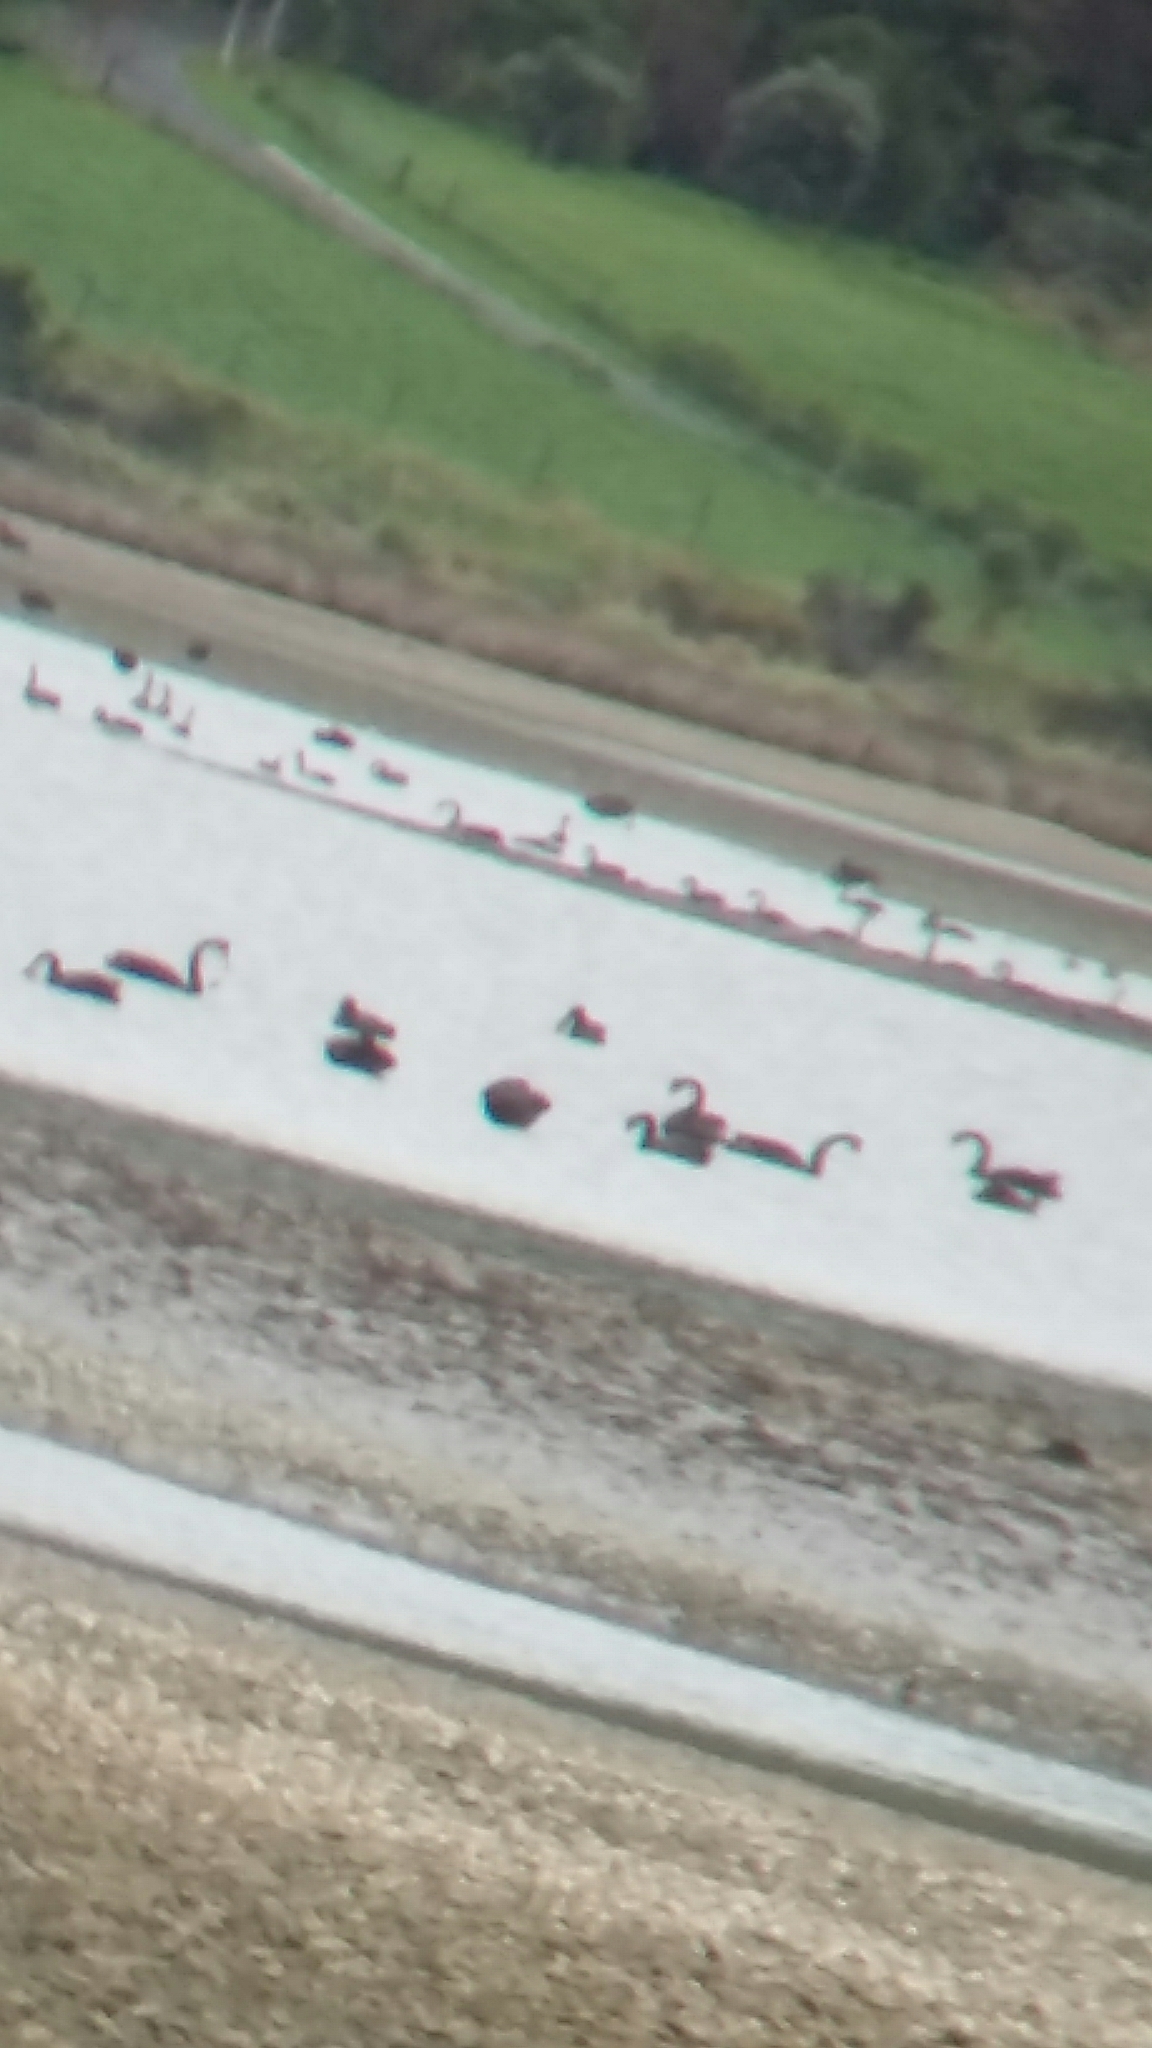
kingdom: Animalia
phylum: Chordata
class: Aves
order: Anseriformes
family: Anatidae
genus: Cygnus
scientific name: Cygnus atratus
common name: Black swan
